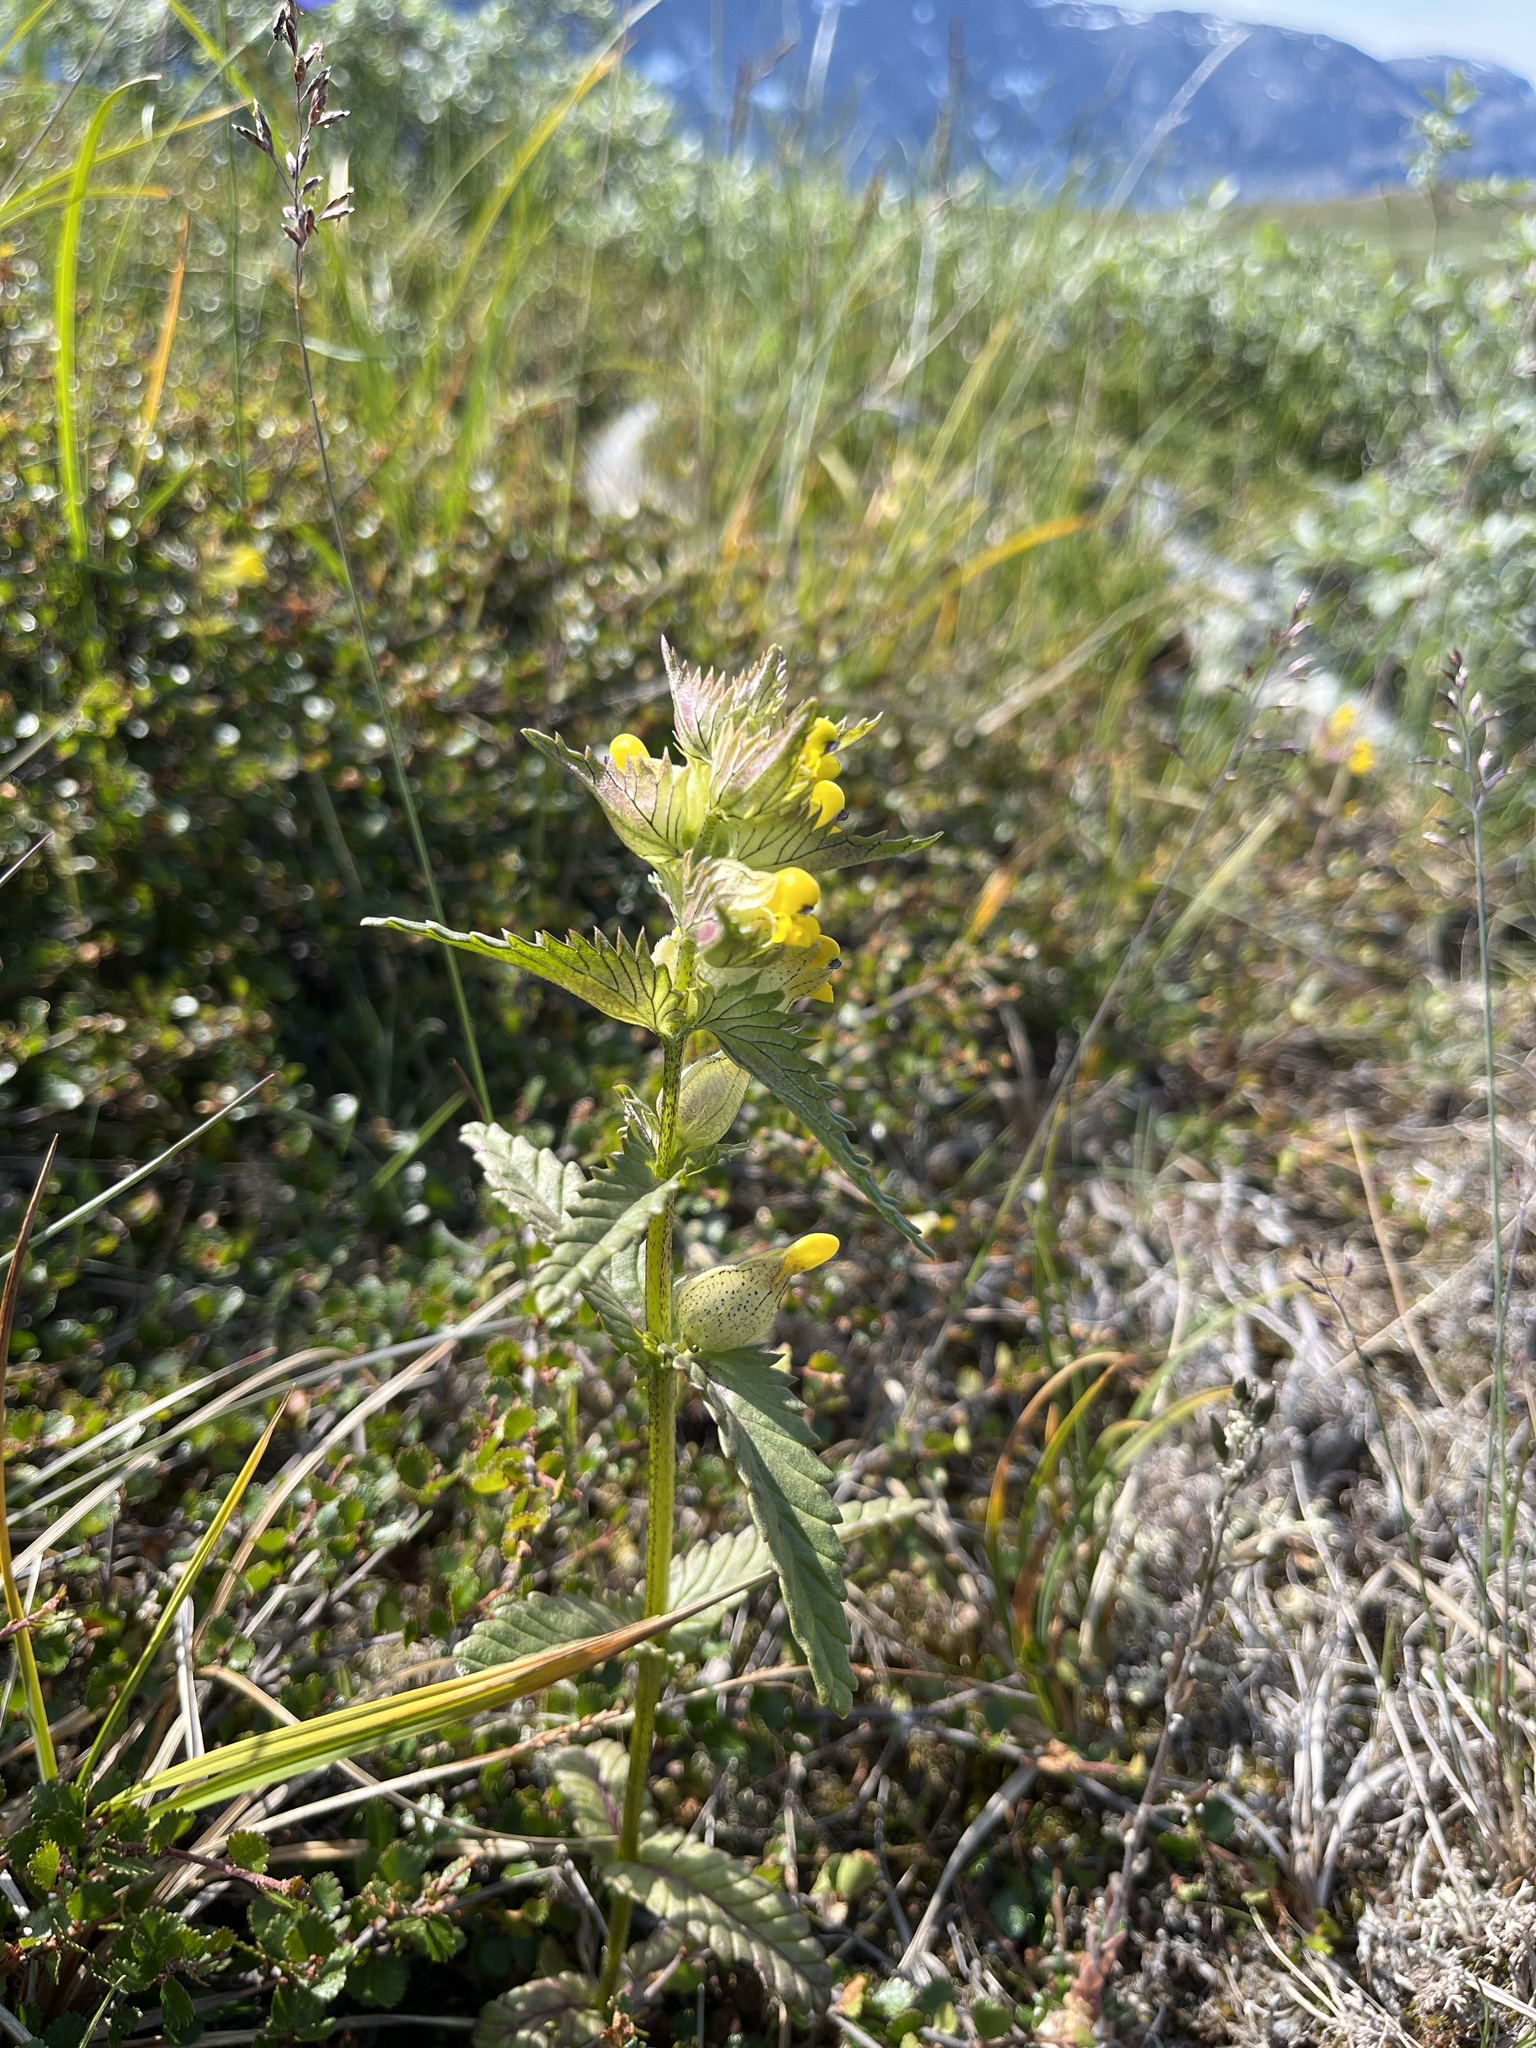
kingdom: Plantae
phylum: Tracheophyta
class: Magnoliopsida
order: Lamiales
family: Orobanchaceae
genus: Rhinanthus
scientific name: Rhinanthus minor
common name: Yellow-rattle
